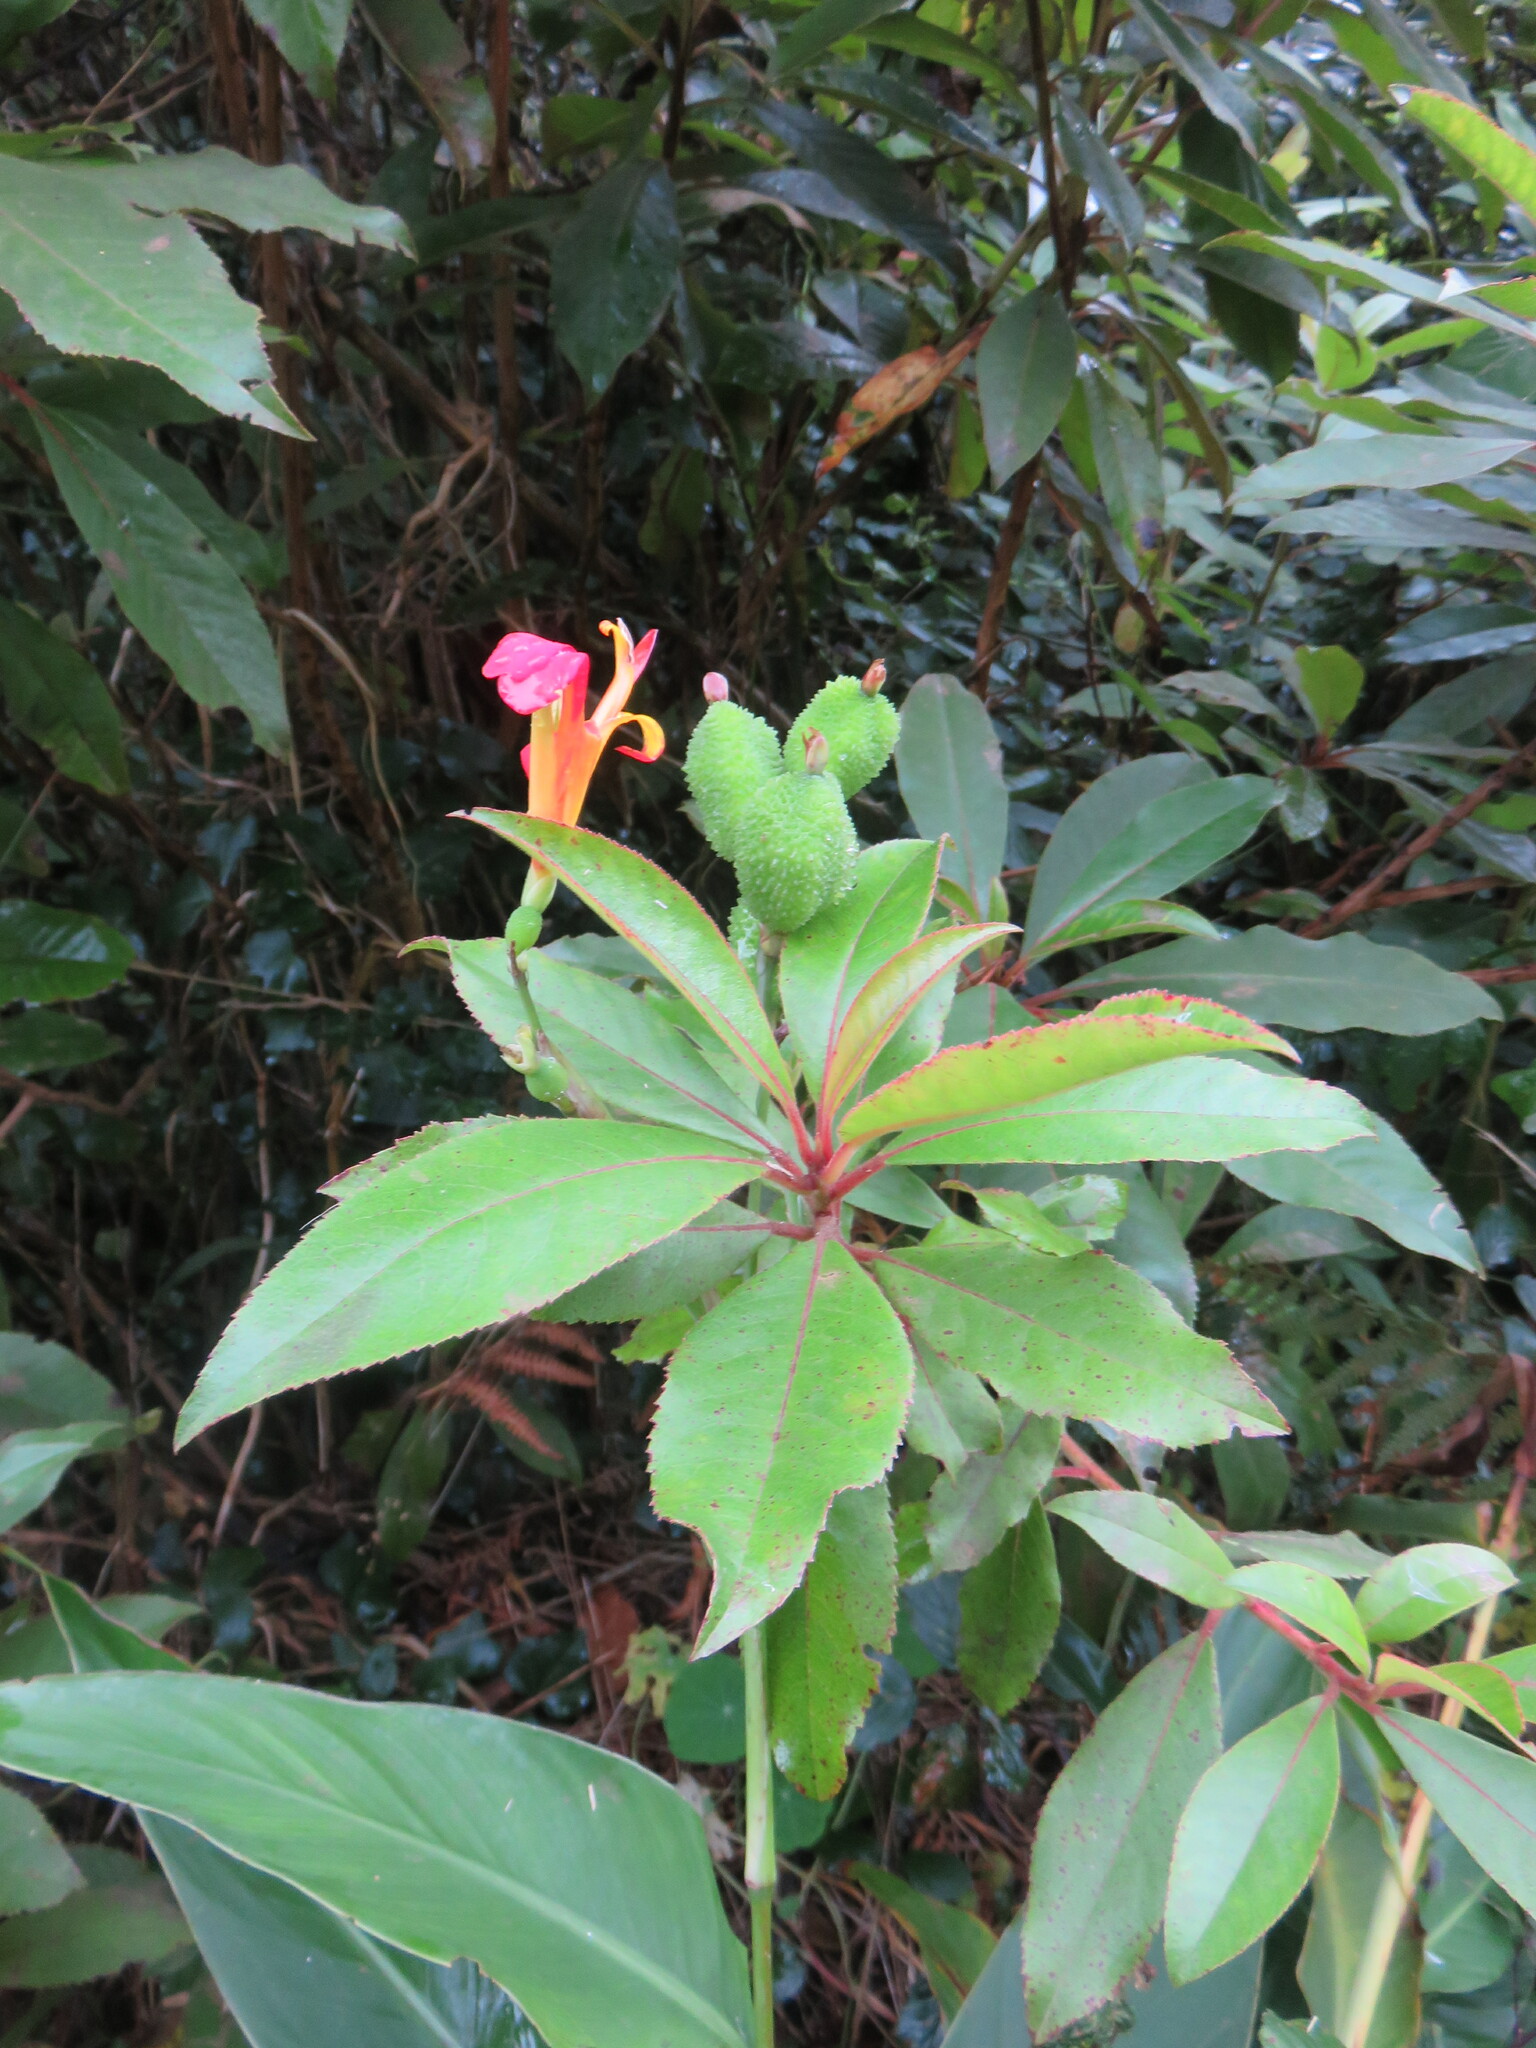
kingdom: Plantae
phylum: Tracheophyta
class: Magnoliopsida
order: Ericales
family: Clethraceae
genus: Clethra
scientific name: Clethra arborea
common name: Lily-of-the-valley-tree
